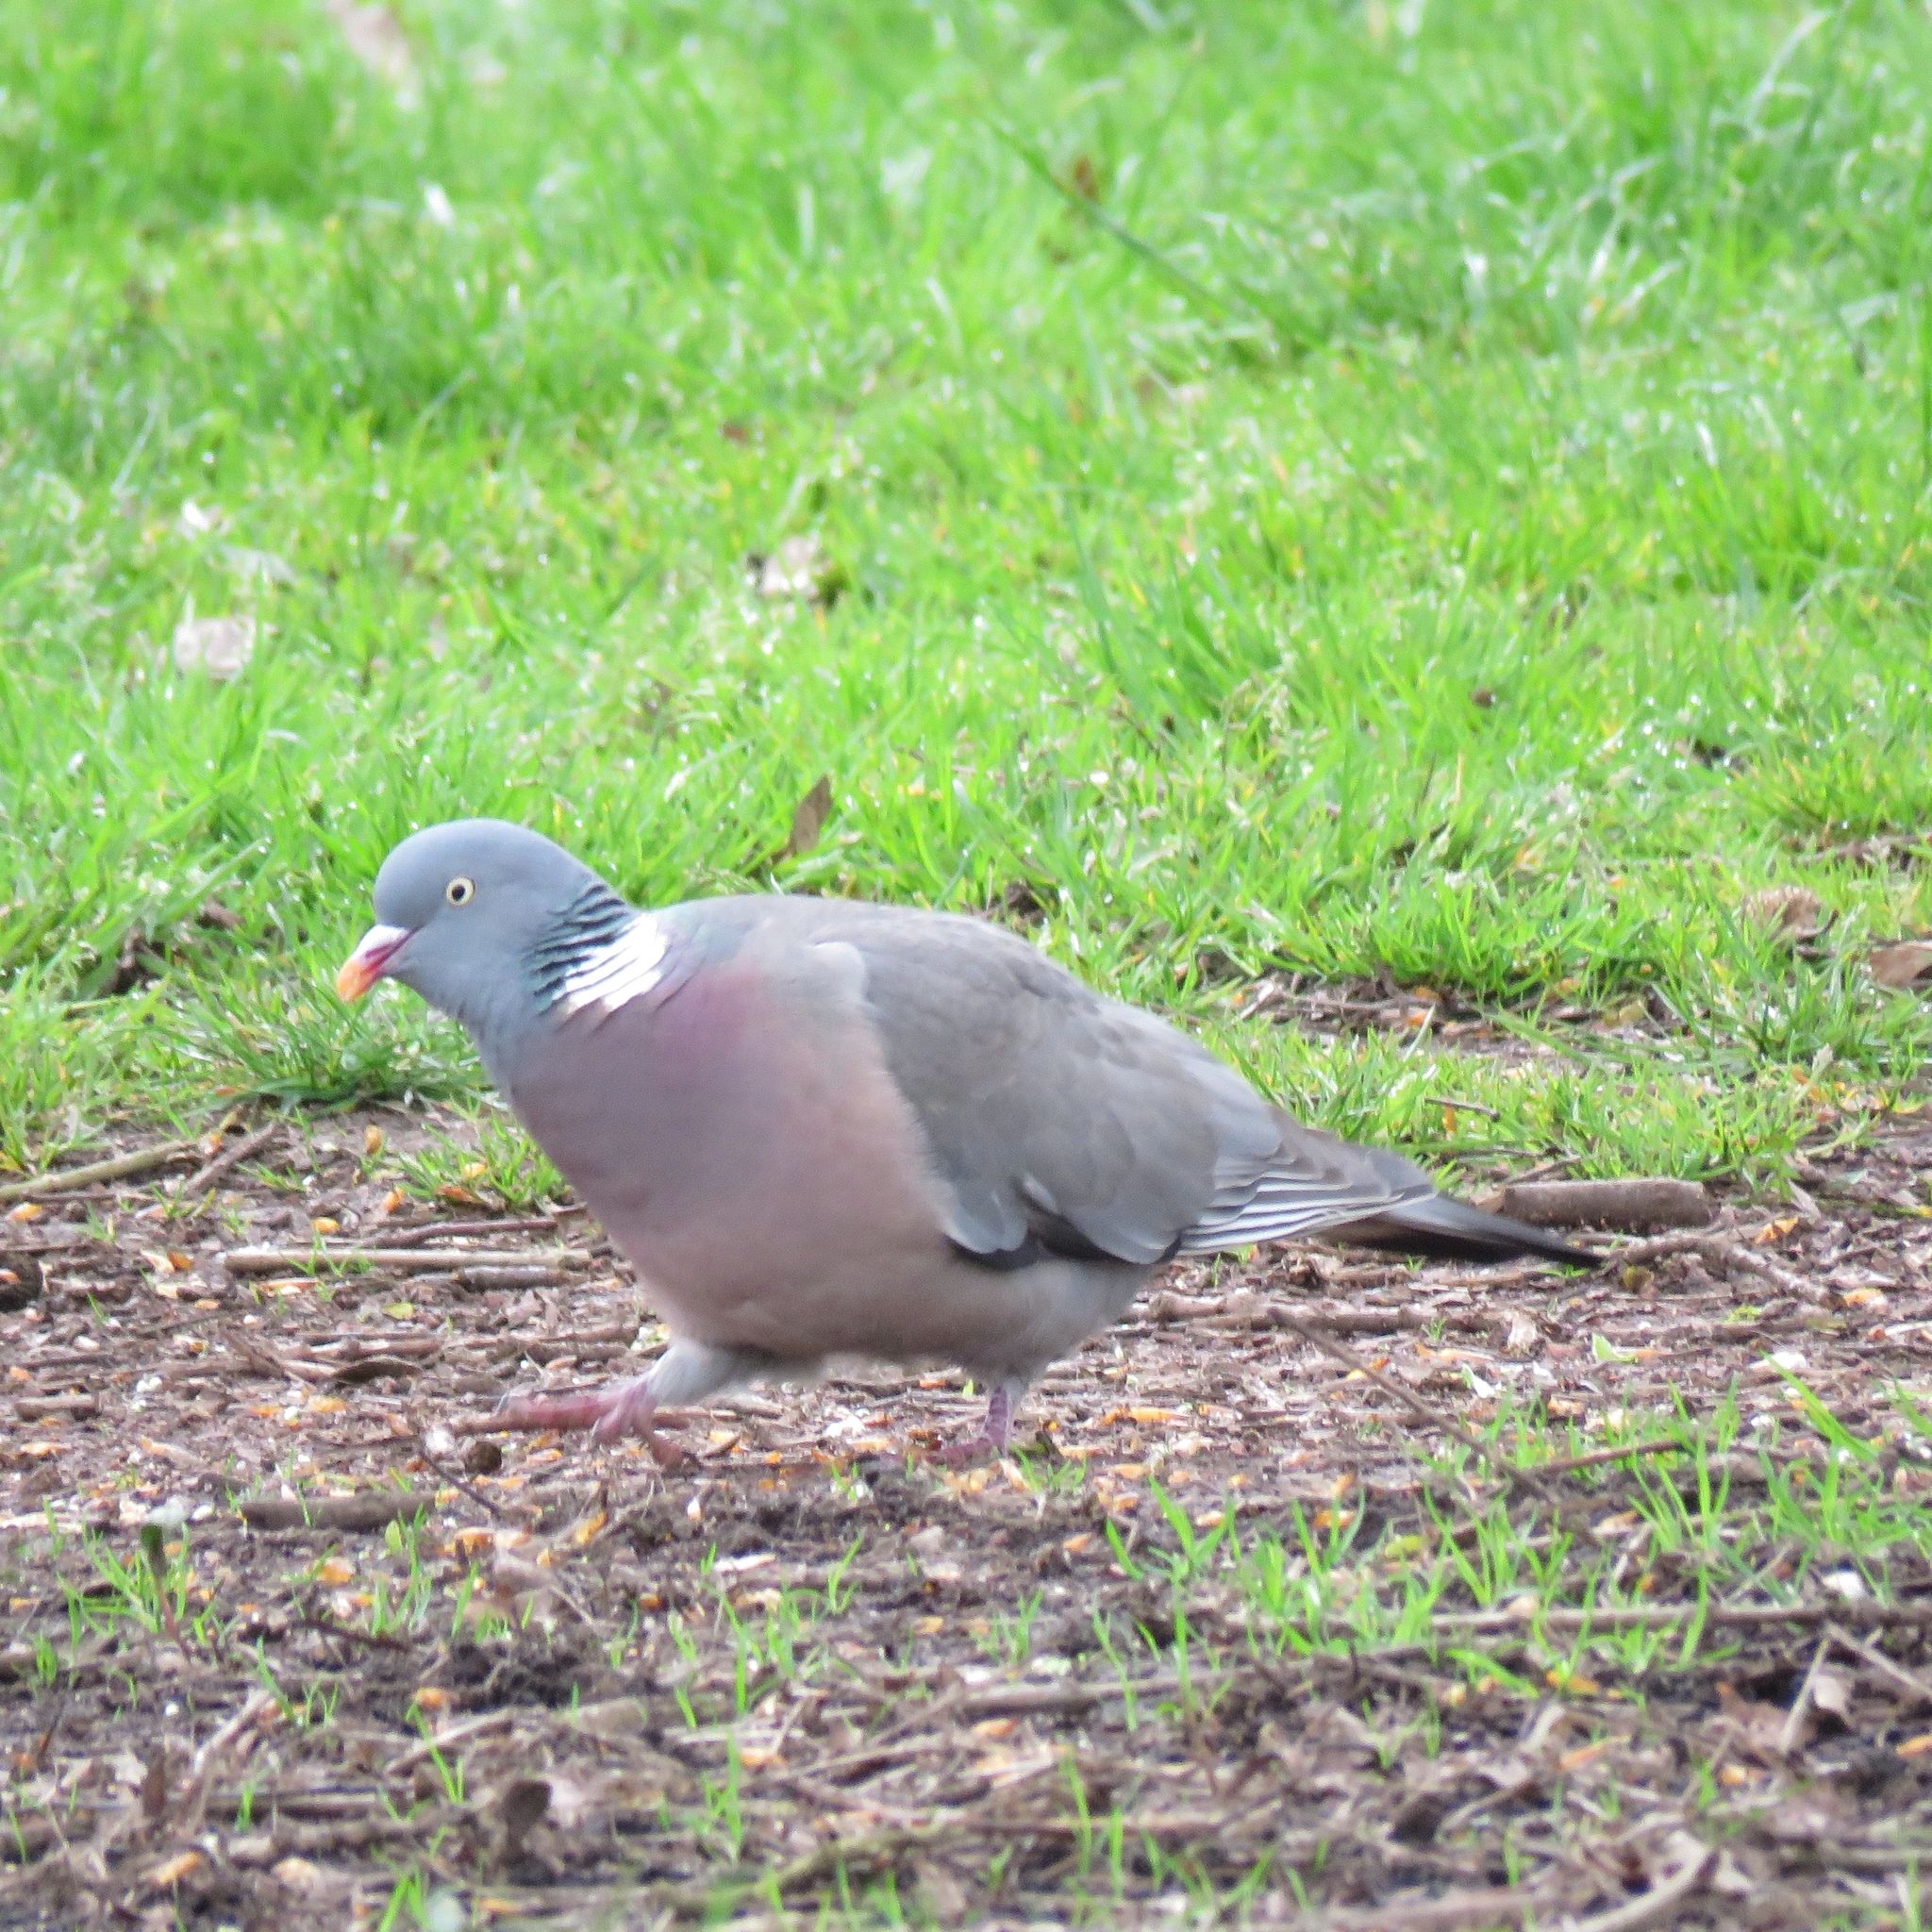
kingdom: Animalia
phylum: Chordata
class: Aves
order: Columbiformes
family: Columbidae
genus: Columba
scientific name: Columba palumbus
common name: Common wood pigeon
